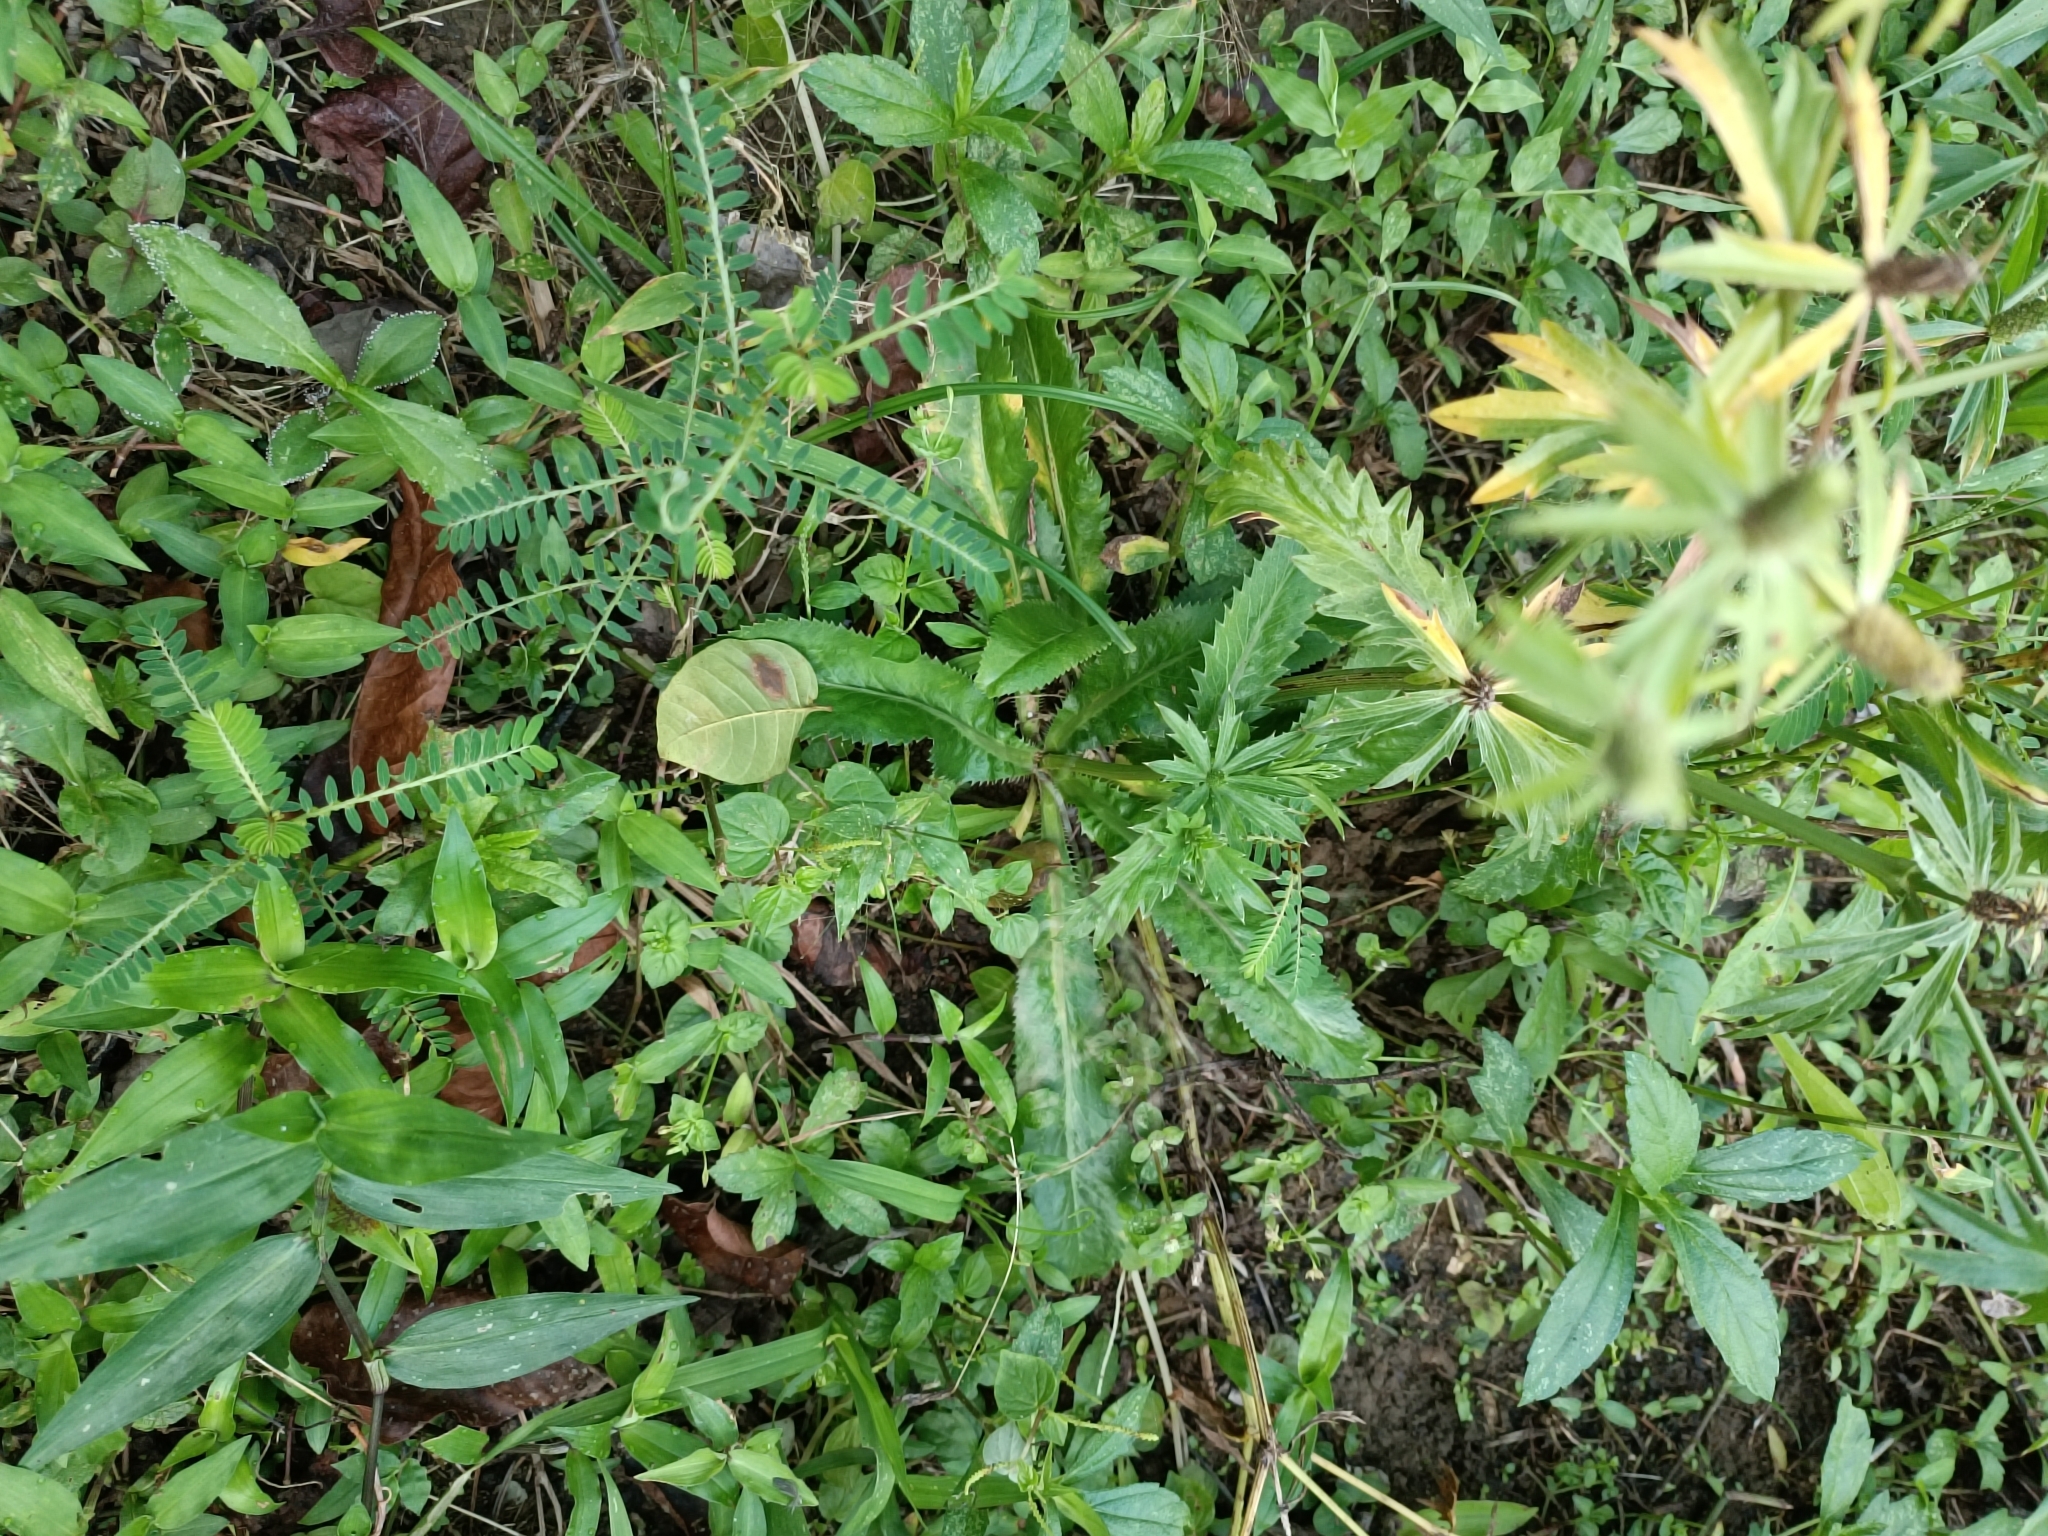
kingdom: Plantae
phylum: Tracheophyta
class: Magnoliopsida
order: Apiales
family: Apiaceae
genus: Eryngium
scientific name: Eryngium foetidum
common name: Fitweed
